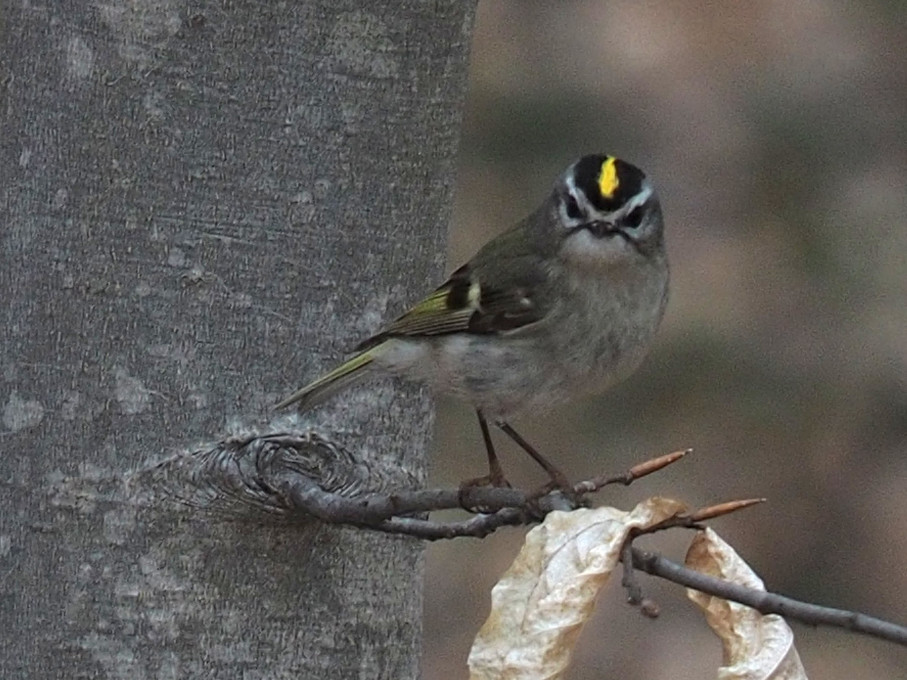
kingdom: Animalia
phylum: Chordata
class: Aves
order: Passeriformes
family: Regulidae
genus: Regulus
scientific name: Regulus satrapa
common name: Golden-crowned kinglet
